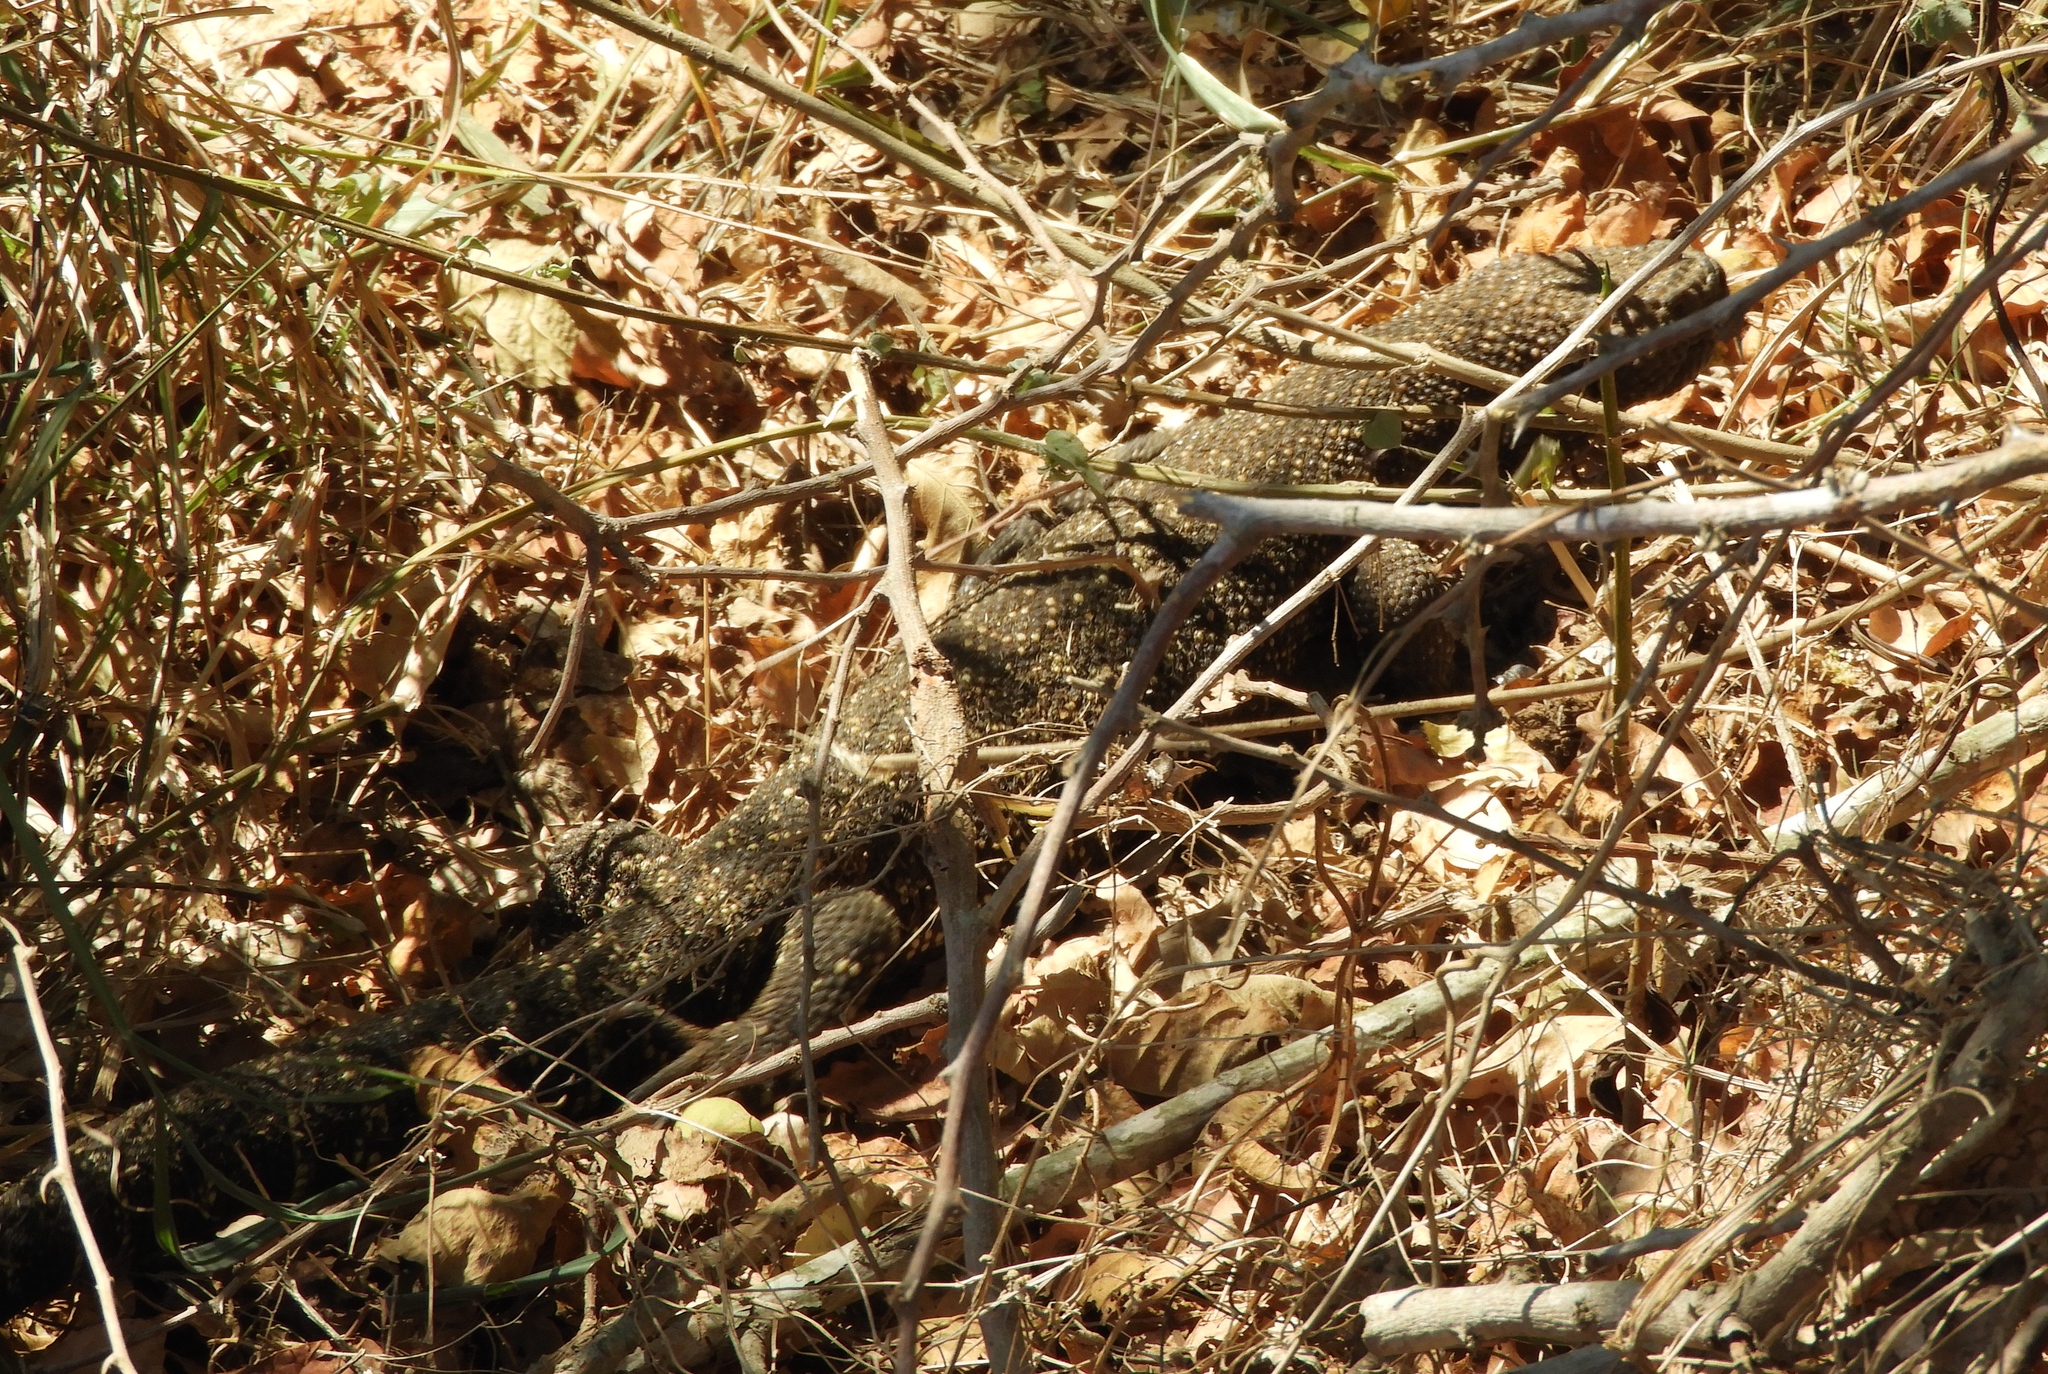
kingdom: Animalia
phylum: Chordata
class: Squamata
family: Helodermatidae
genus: Heloderma
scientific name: Heloderma horridum
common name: Mexican beaded lizard
